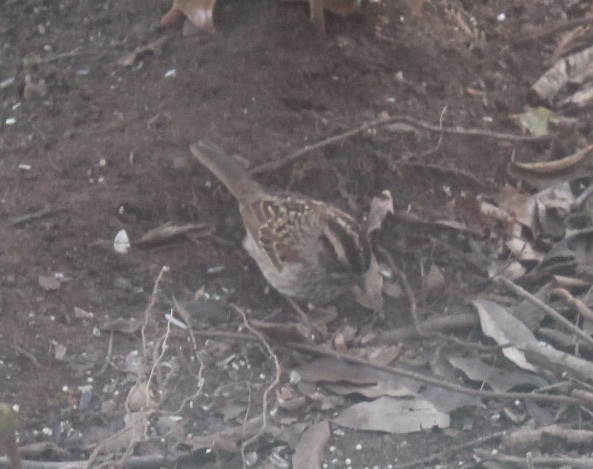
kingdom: Animalia
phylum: Chordata
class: Aves
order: Passeriformes
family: Passerellidae
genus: Zonotrichia
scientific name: Zonotrichia albicollis
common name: White-throated sparrow
